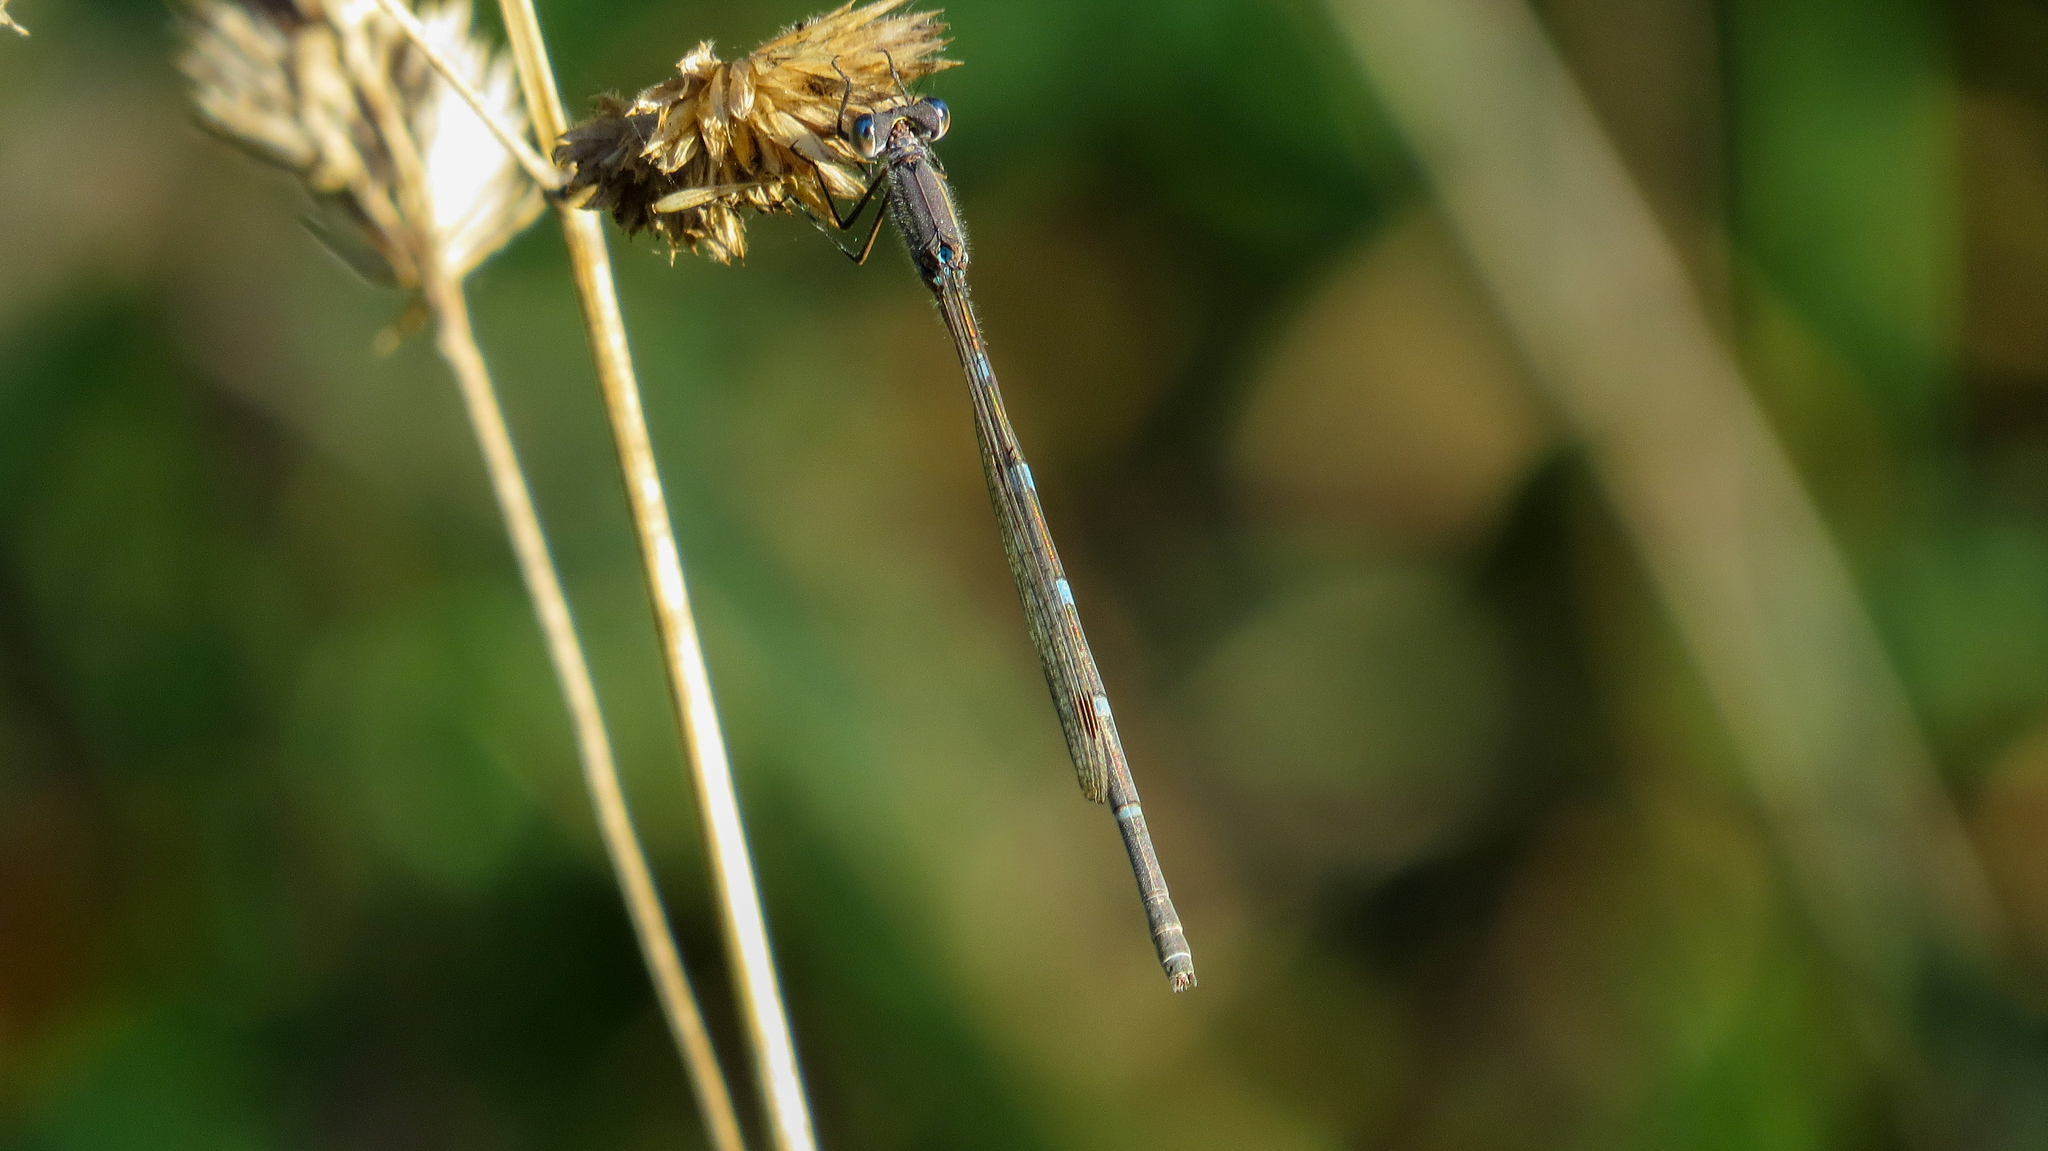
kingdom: Animalia
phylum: Arthropoda
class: Insecta
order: Odonata
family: Lestidae
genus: Austrolestes
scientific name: Austrolestes leda
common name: Wandering ringtail
